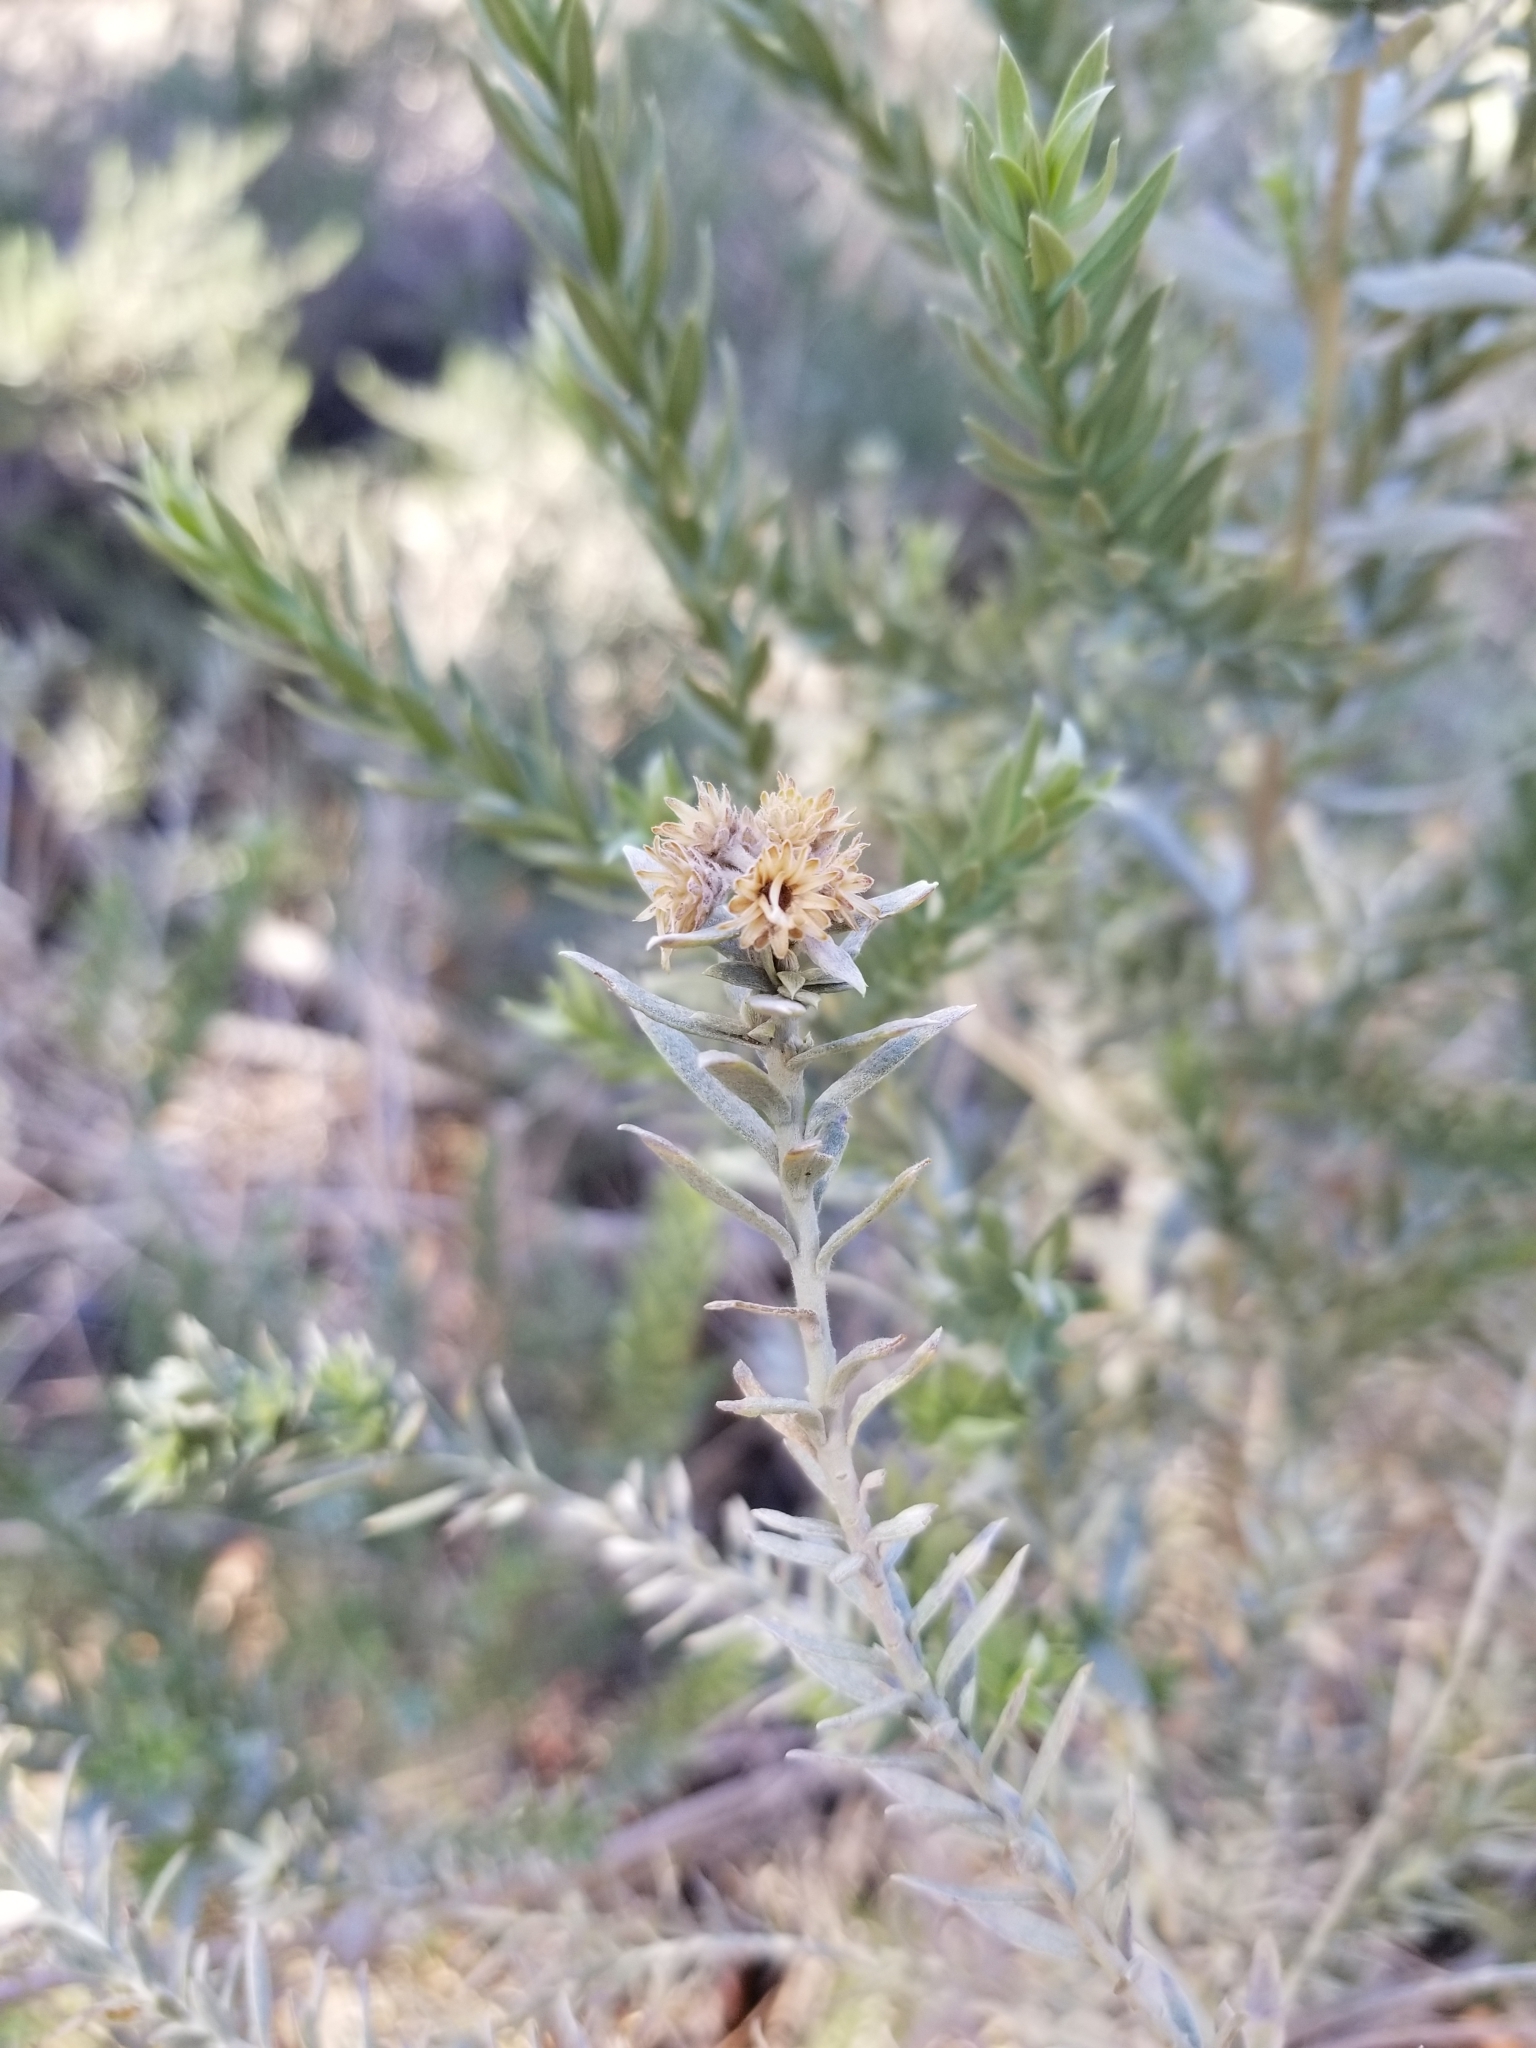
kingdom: Plantae
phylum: Tracheophyta
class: Magnoliopsida
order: Asterales
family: Asteraceae
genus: Pluchea
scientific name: Pluchea sericea
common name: Arrow-weed
